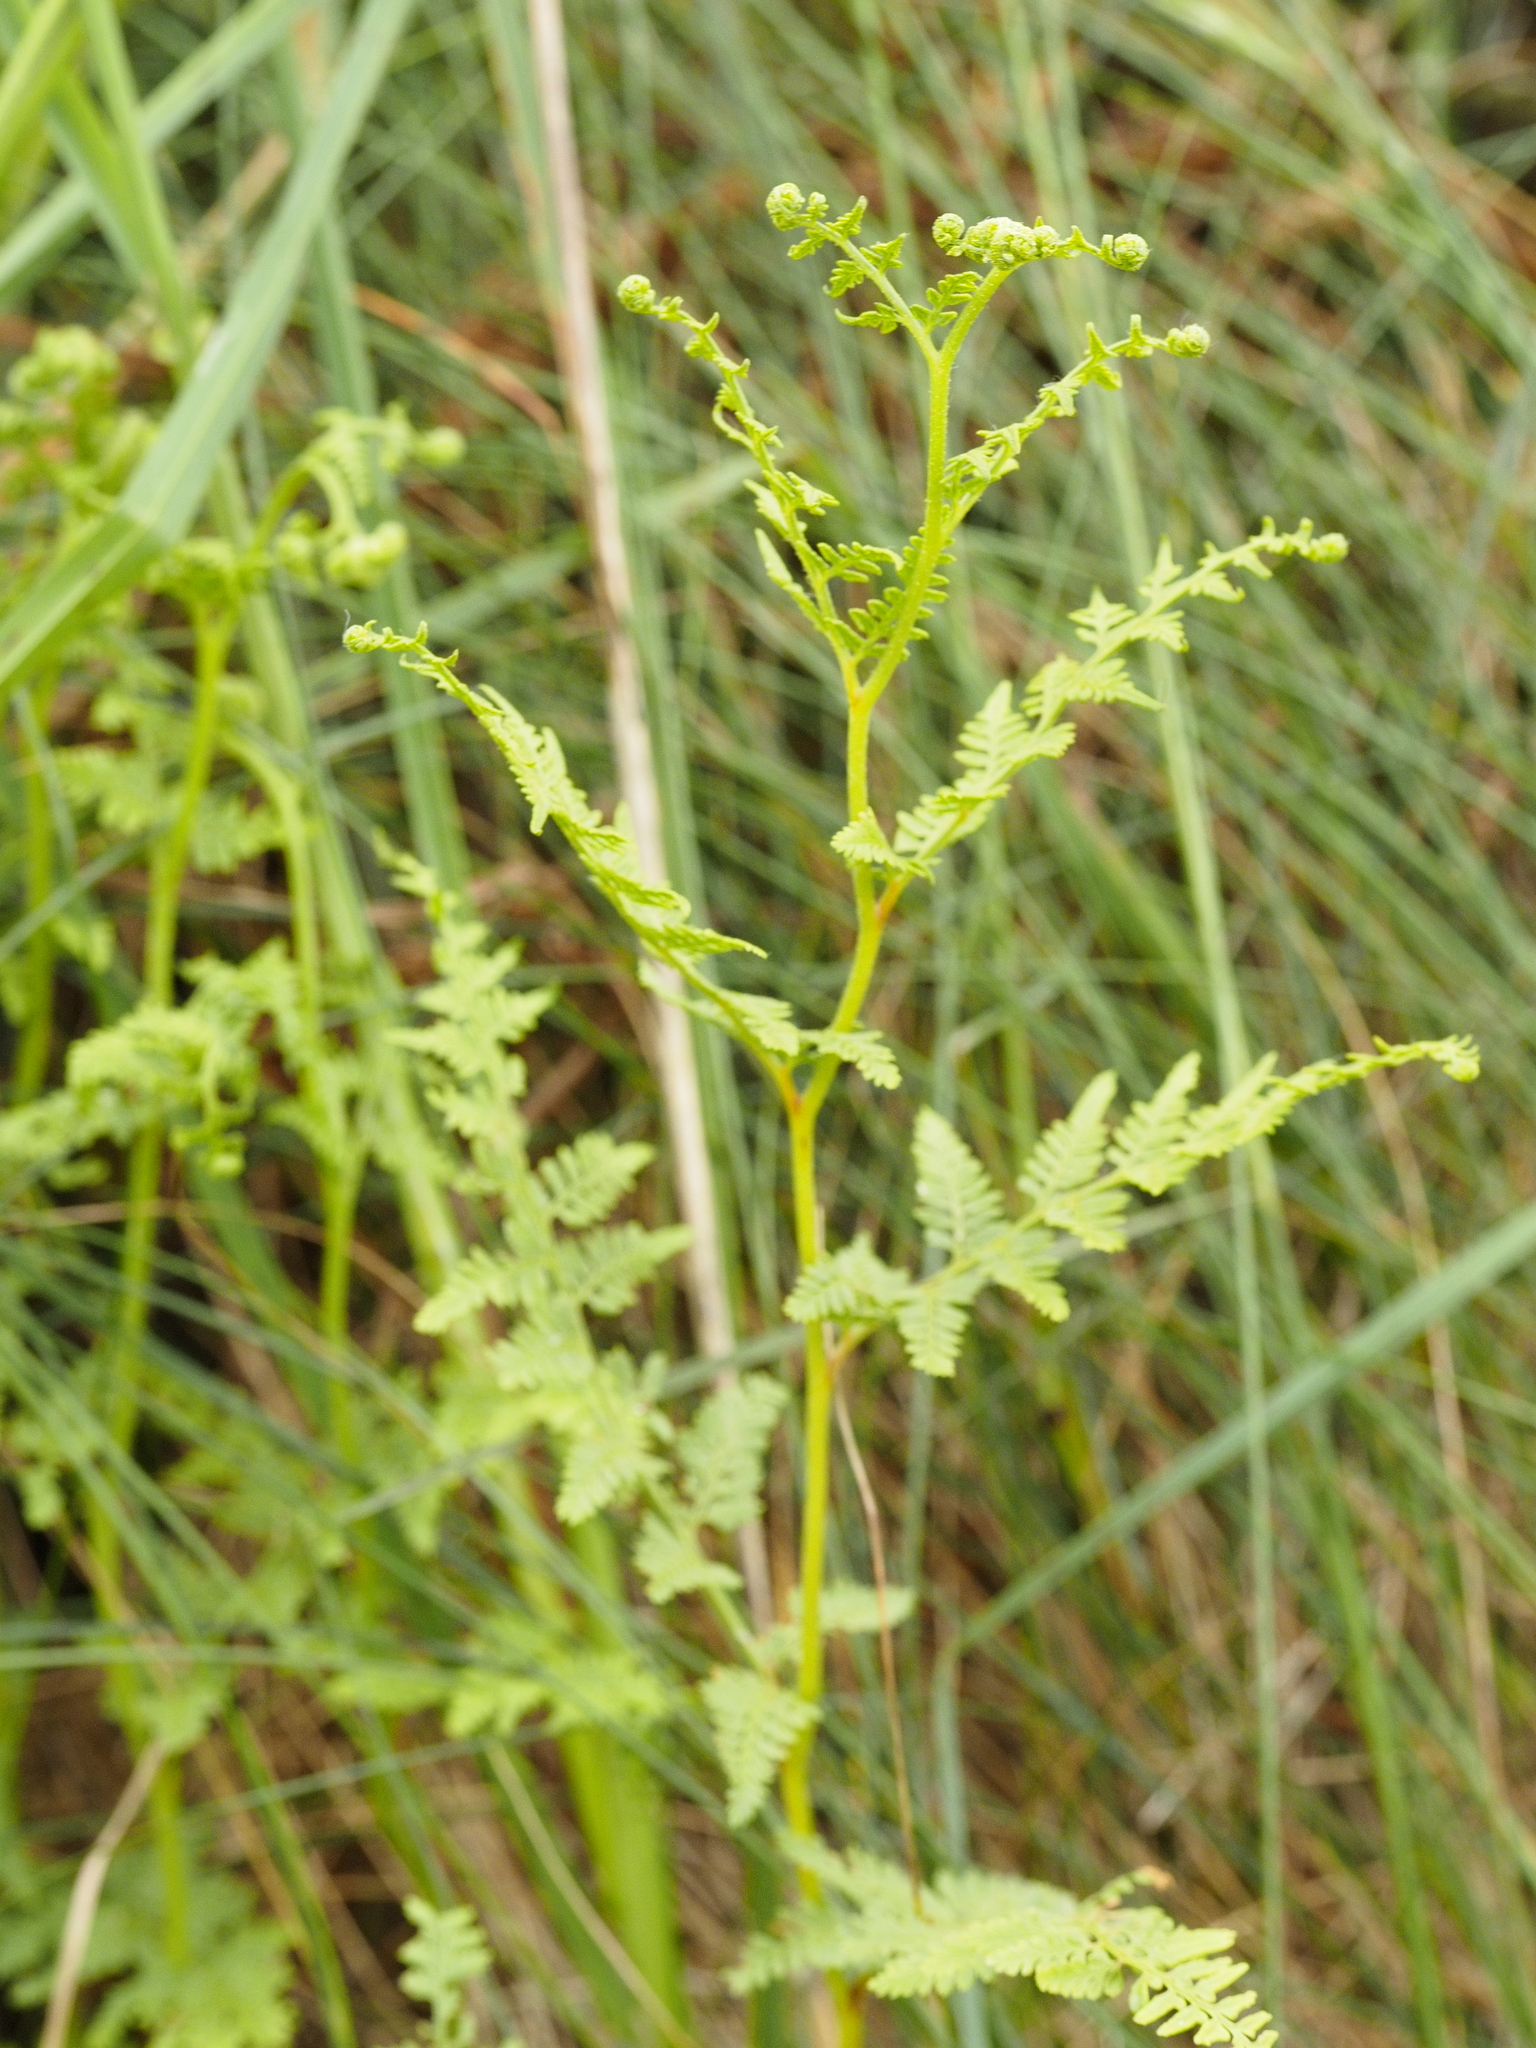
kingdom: Plantae
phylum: Tracheophyta
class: Polypodiopsida
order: Polypodiales
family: Dennstaedtiaceae
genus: Paesia
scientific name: Paesia scaberula
